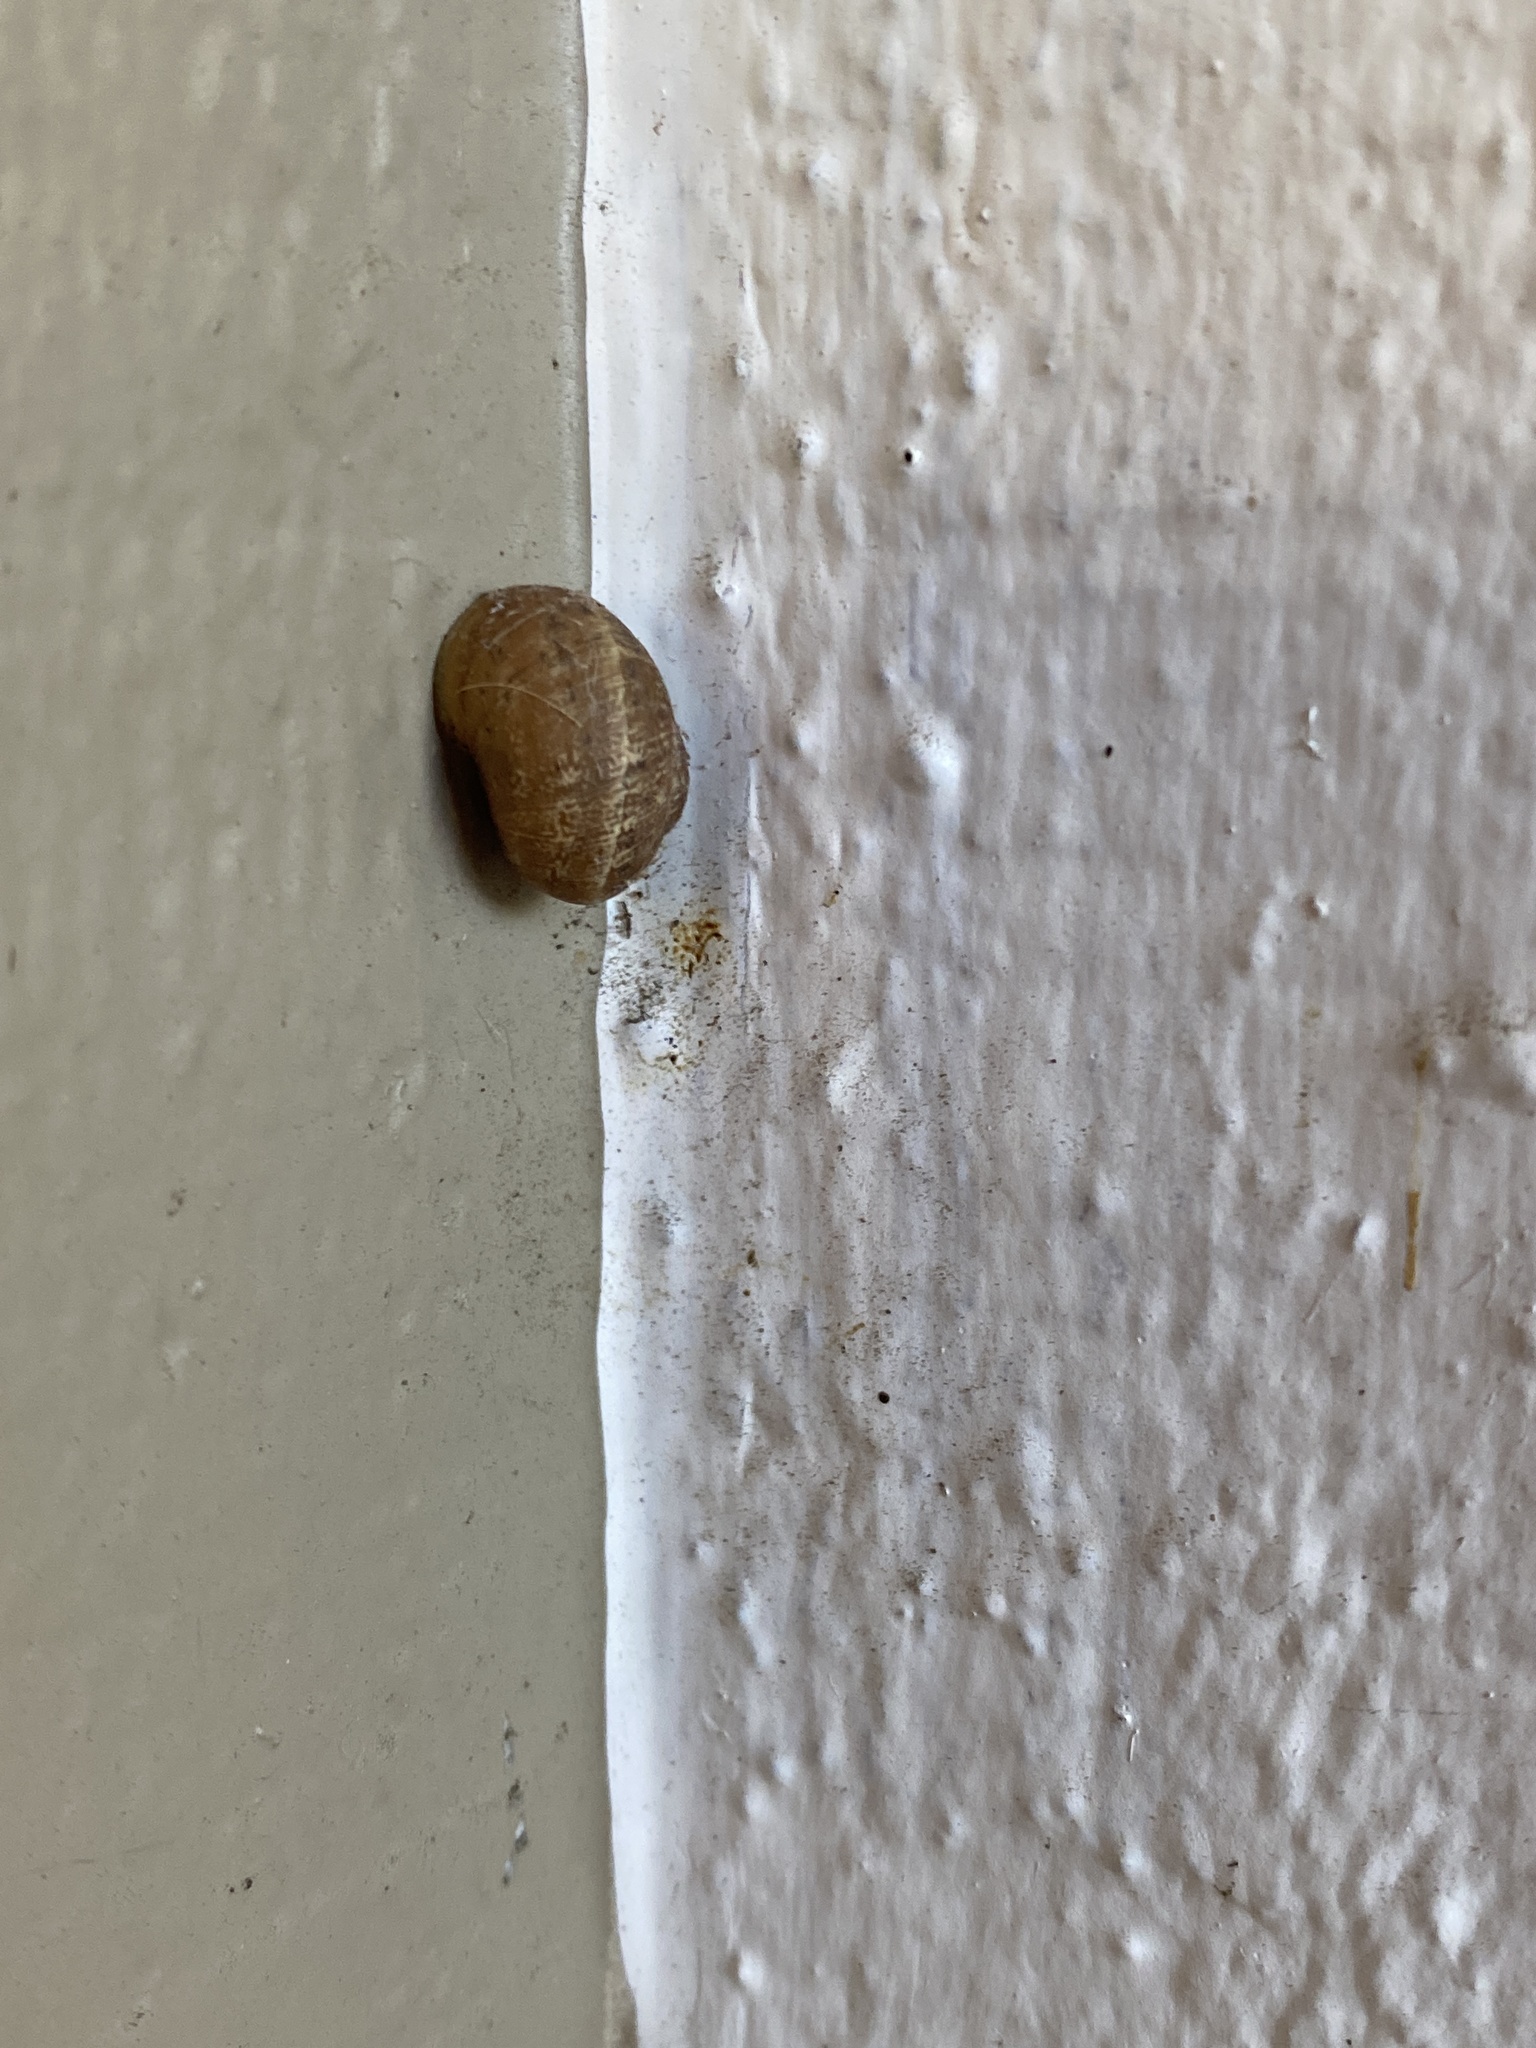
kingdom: Animalia
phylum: Mollusca
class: Gastropoda
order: Stylommatophora
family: Helicidae
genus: Cornu
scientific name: Cornu aspersum
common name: Brown garden snail
